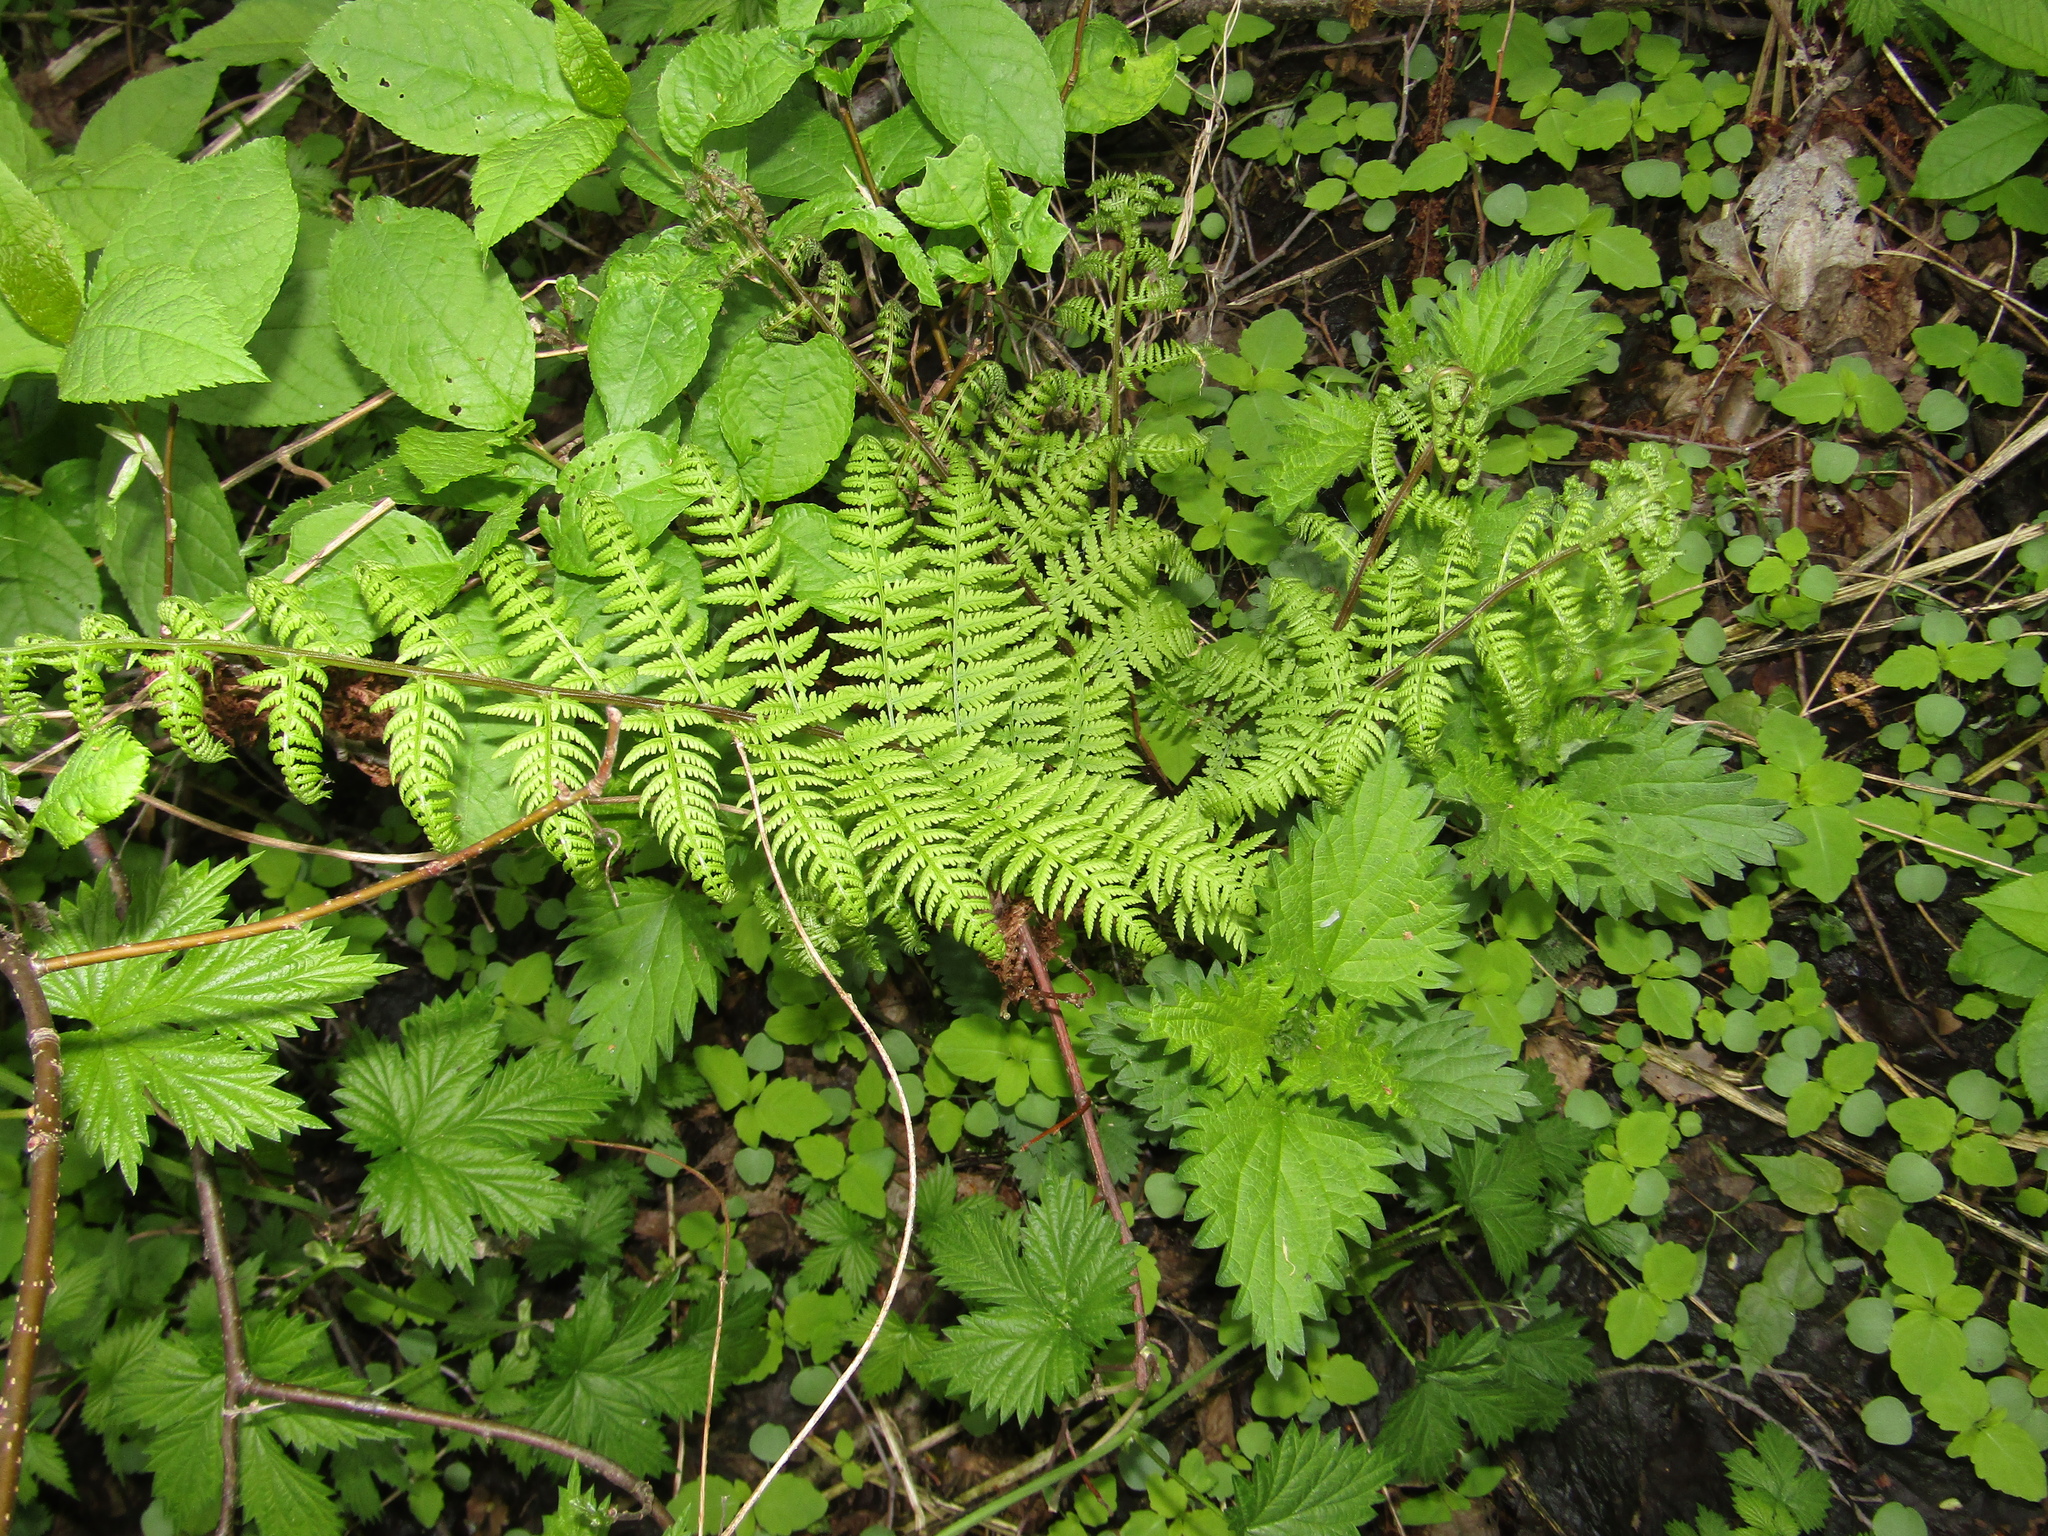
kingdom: Plantae
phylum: Tracheophyta
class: Polypodiopsida
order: Polypodiales
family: Athyriaceae
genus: Athyrium
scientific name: Athyrium filix-femina
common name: Lady fern
